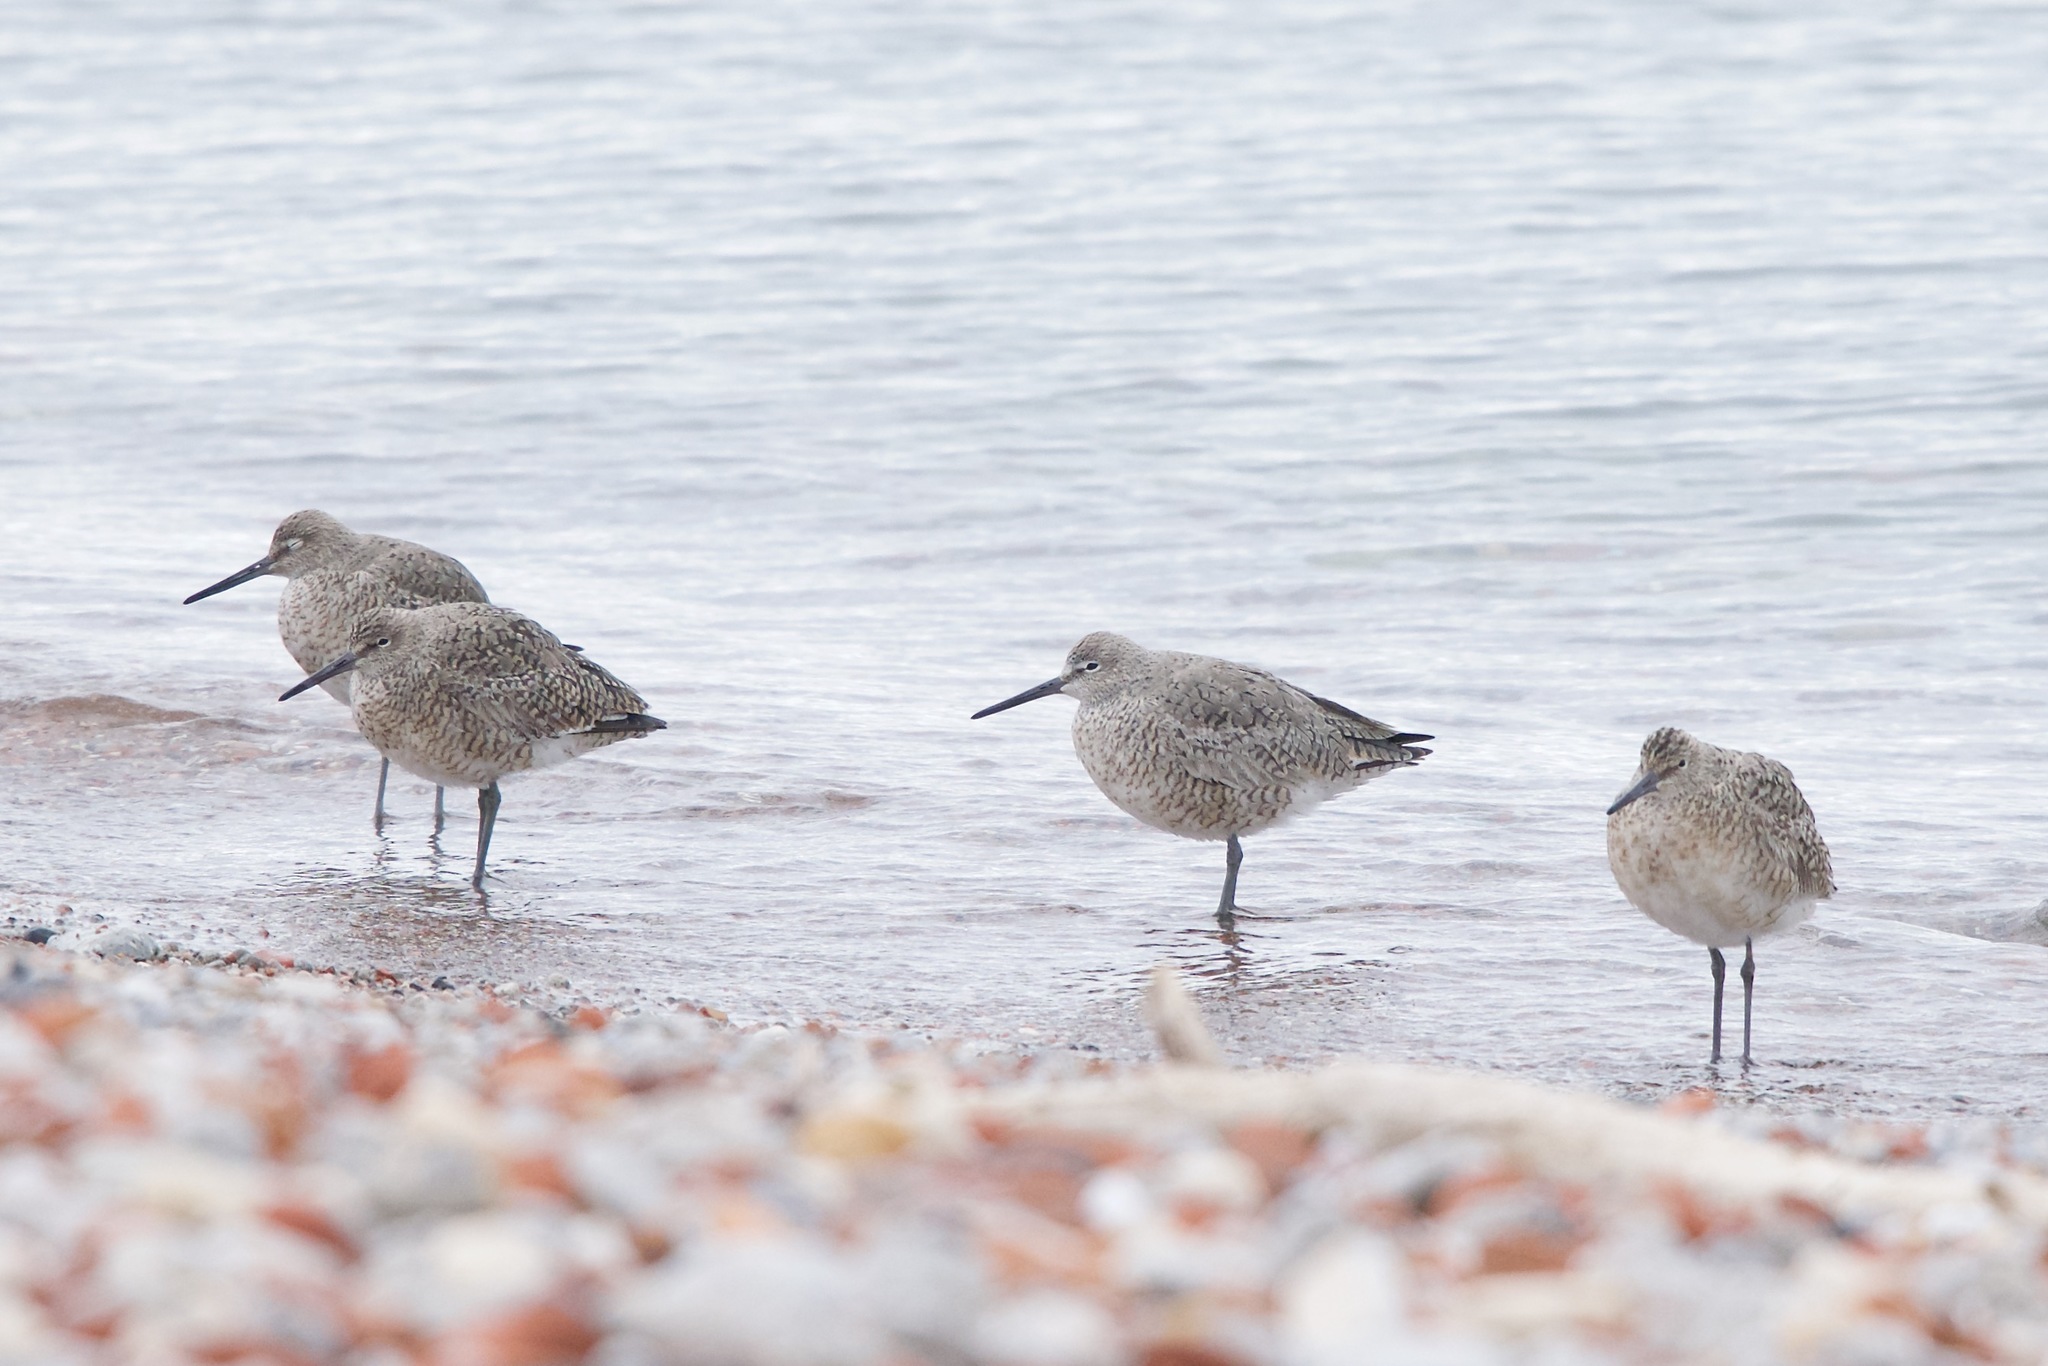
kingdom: Animalia
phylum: Chordata
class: Aves
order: Charadriiformes
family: Scolopacidae
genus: Tringa
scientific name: Tringa semipalmata
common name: Willet
